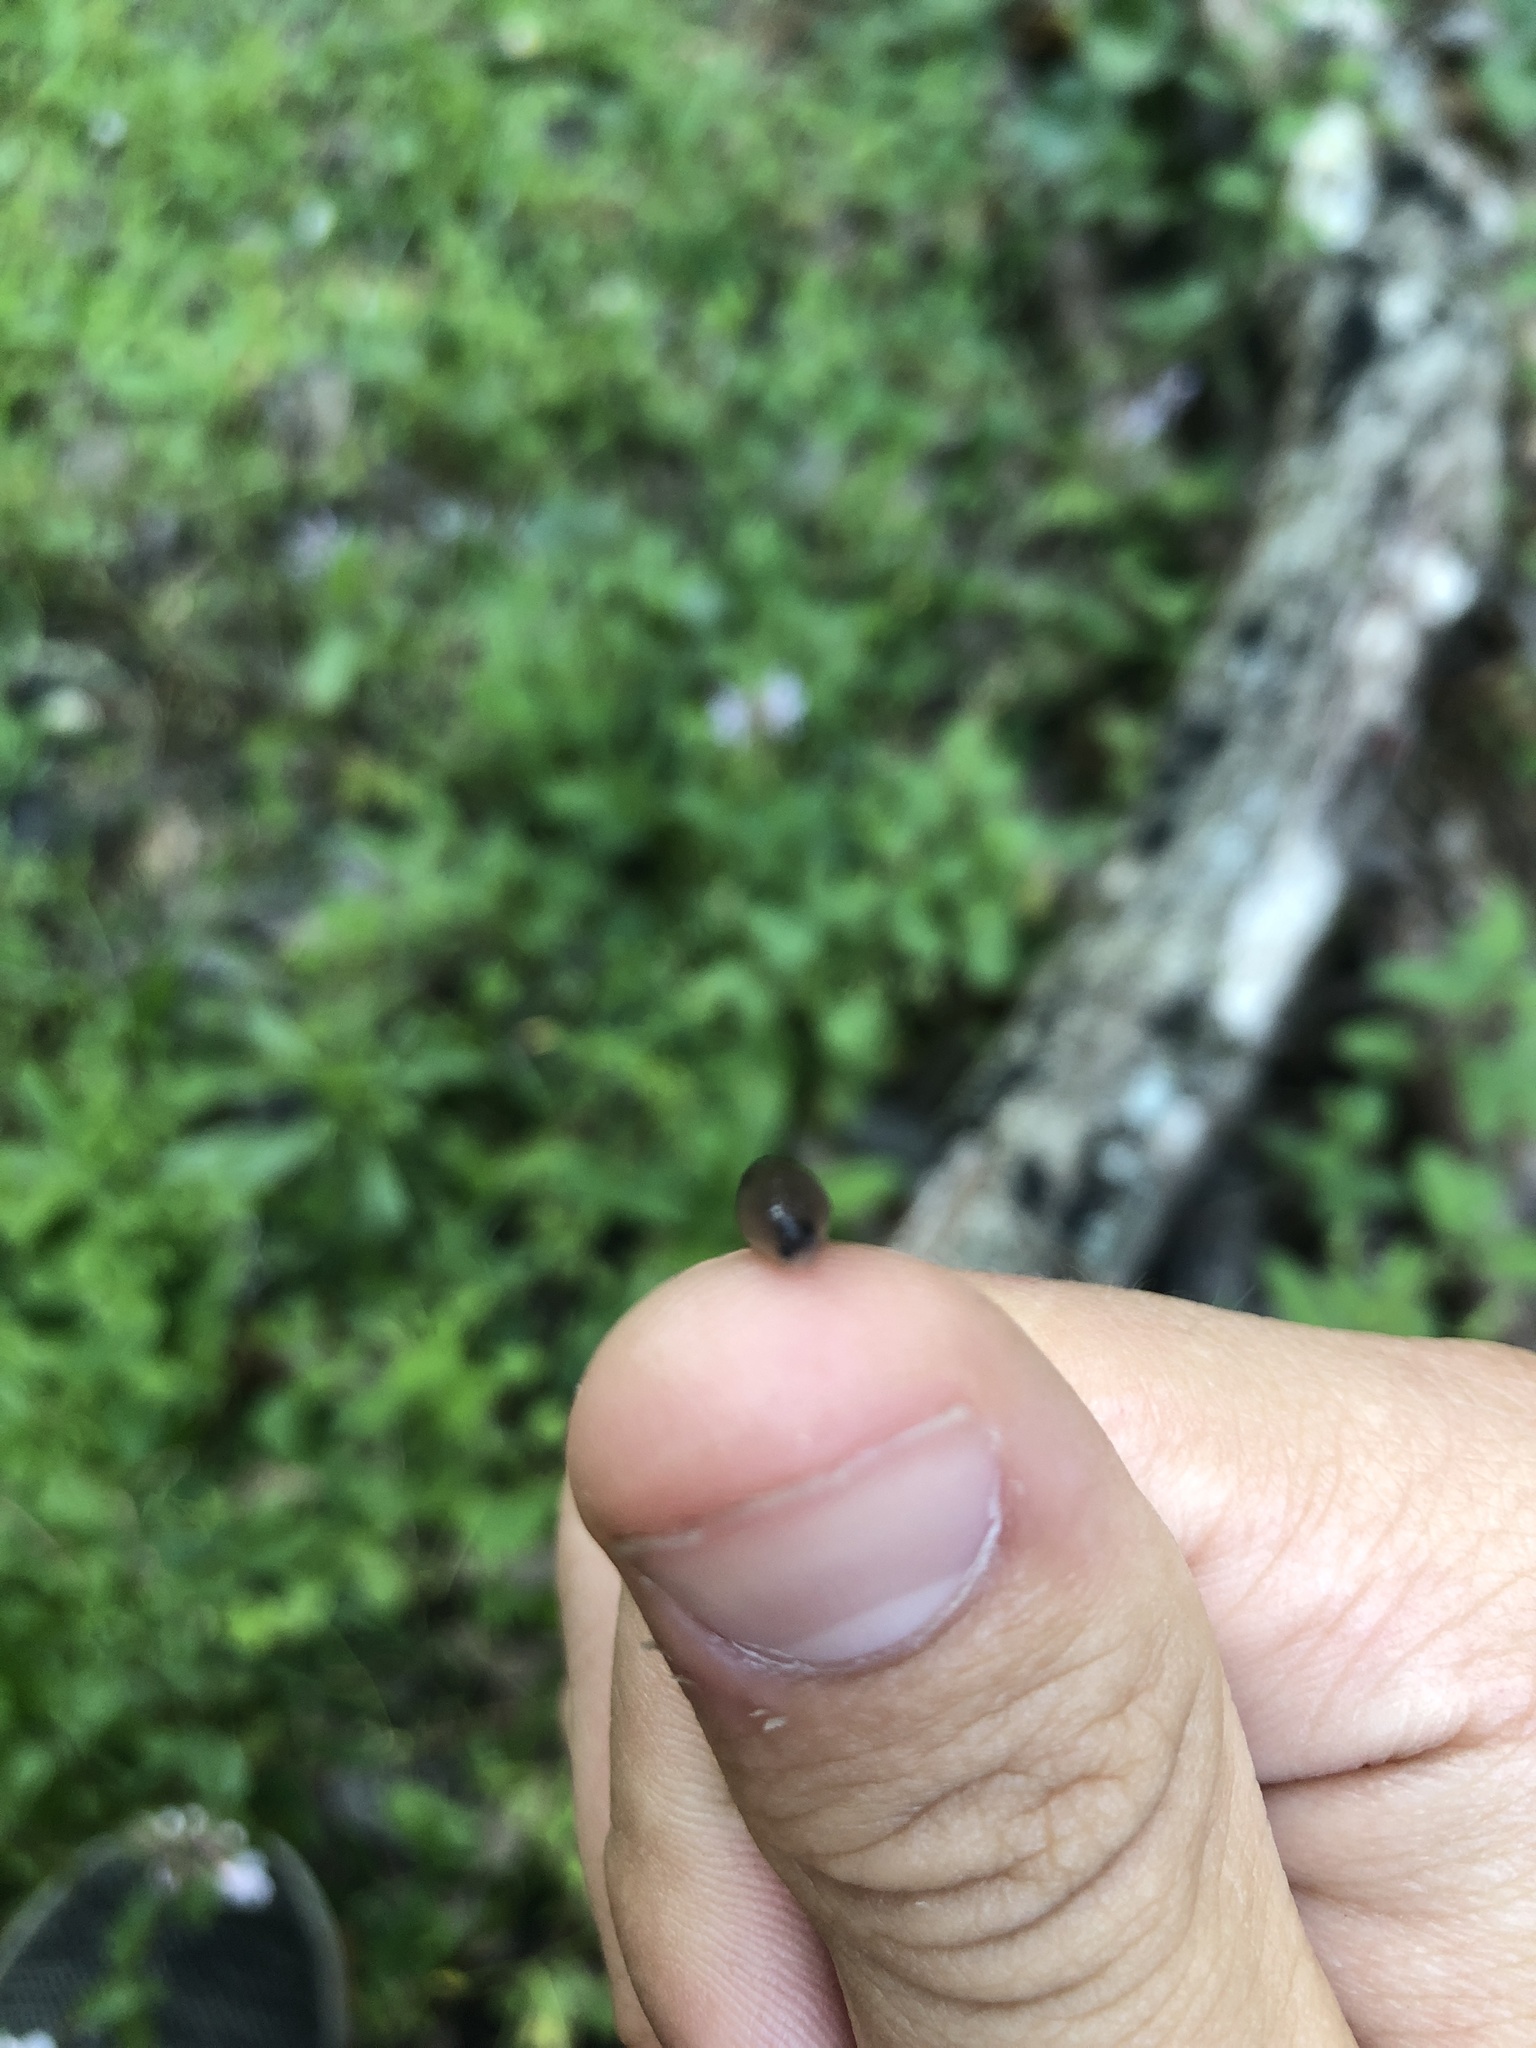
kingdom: Animalia
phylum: Mollusca
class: Gastropoda
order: Stylommatophora
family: Agriolimacidae
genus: Deroceras
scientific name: Deroceras laeve
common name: Marsh slug
